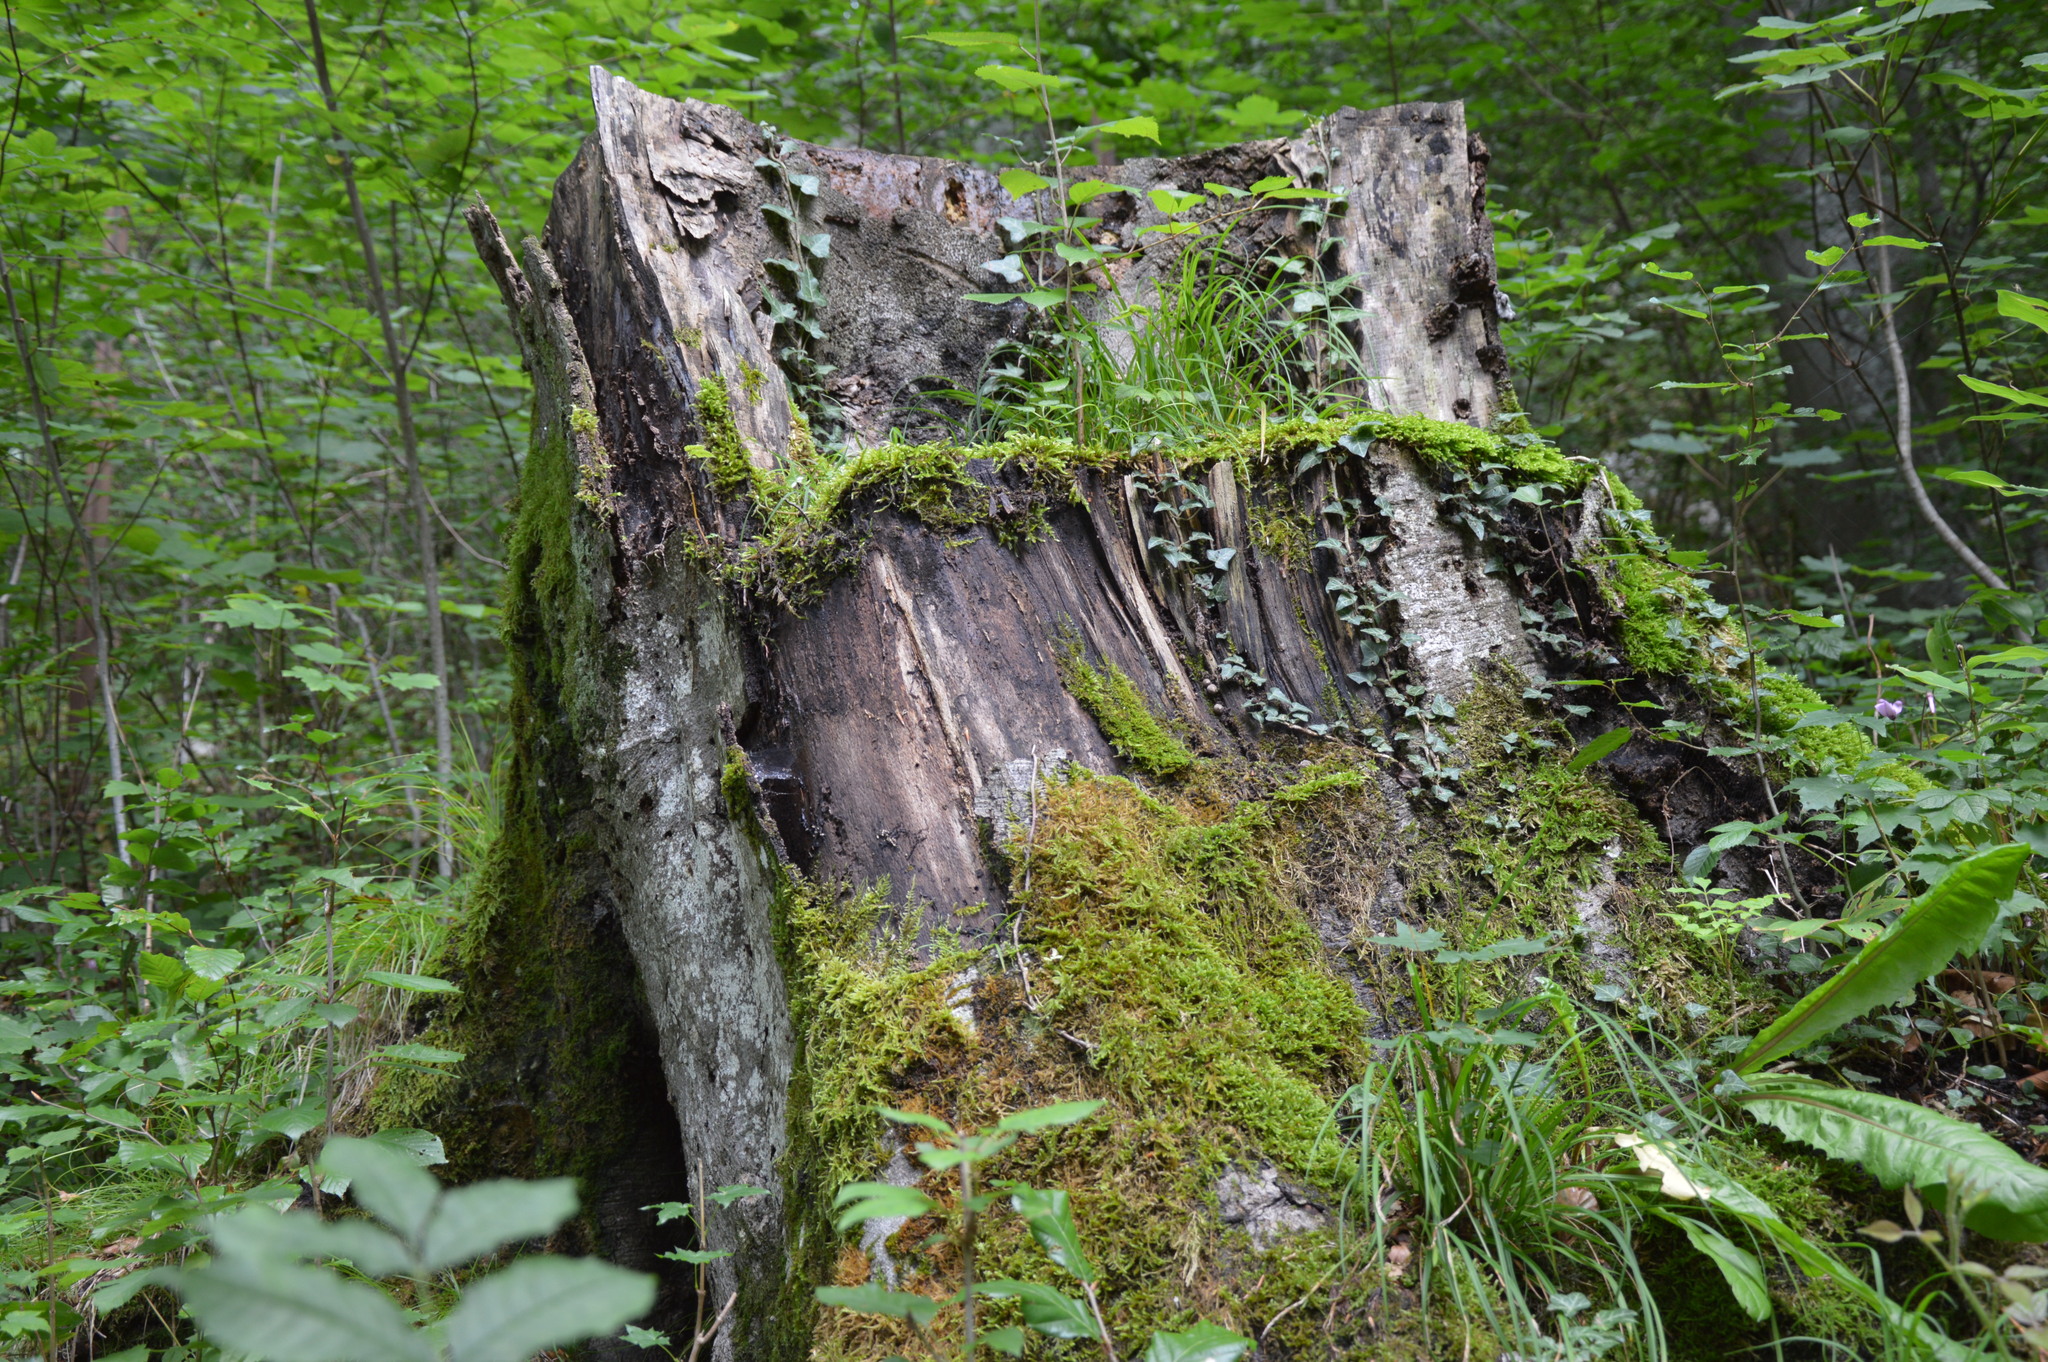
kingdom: Plantae
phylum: Tracheophyta
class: Magnoliopsida
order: Lamiales
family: Oleaceae
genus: Fraxinus
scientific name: Fraxinus excelsior
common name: European ash
